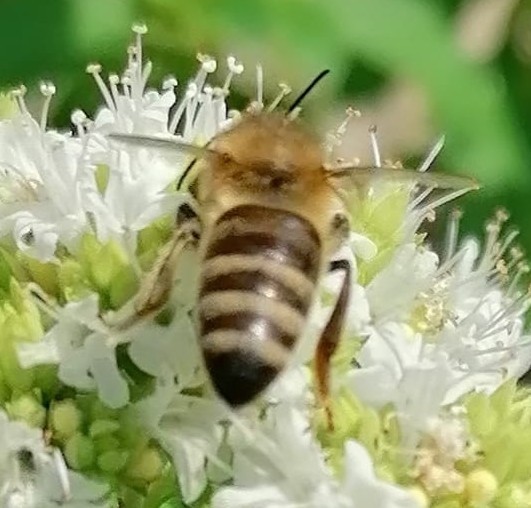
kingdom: Animalia
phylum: Arthropoda
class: Insecta
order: Hymenoptera
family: Apidae
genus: Apis
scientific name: Apis mellifera
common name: Honey bee
